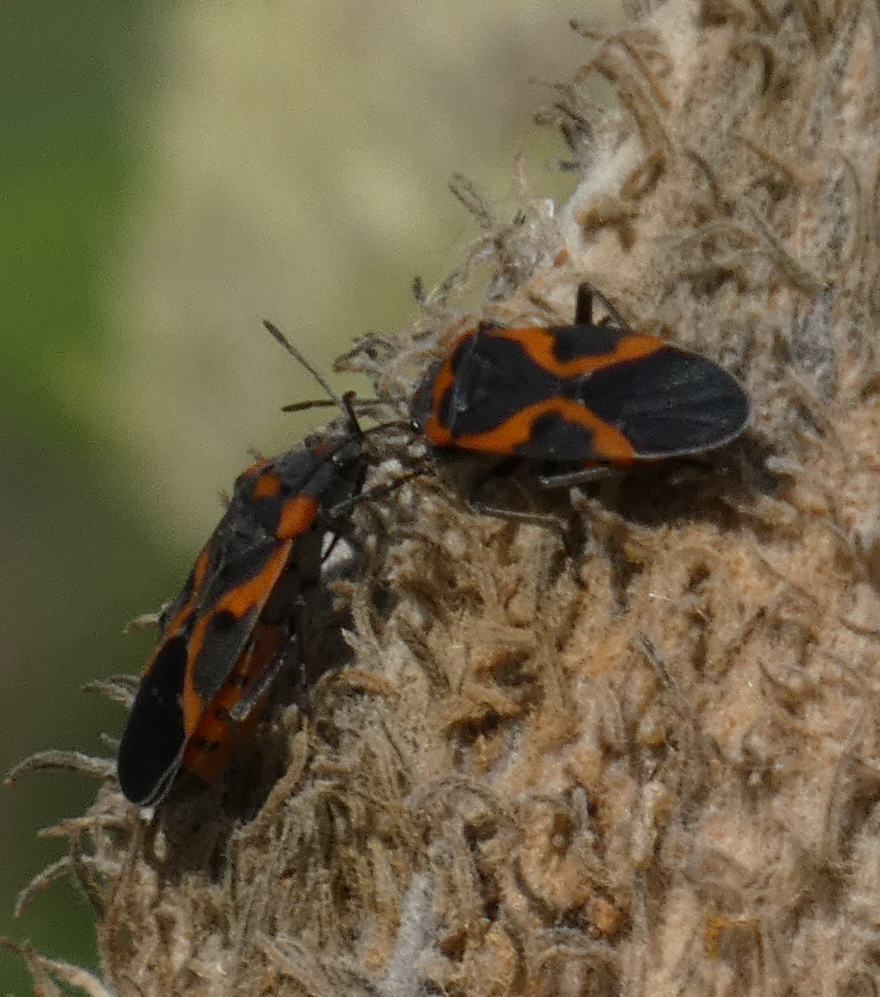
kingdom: Animalia
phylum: Arthropoda
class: Insecta
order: Hemiptera
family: Lygaeidae
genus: Lygaeus
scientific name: Lygaeus kalmii
